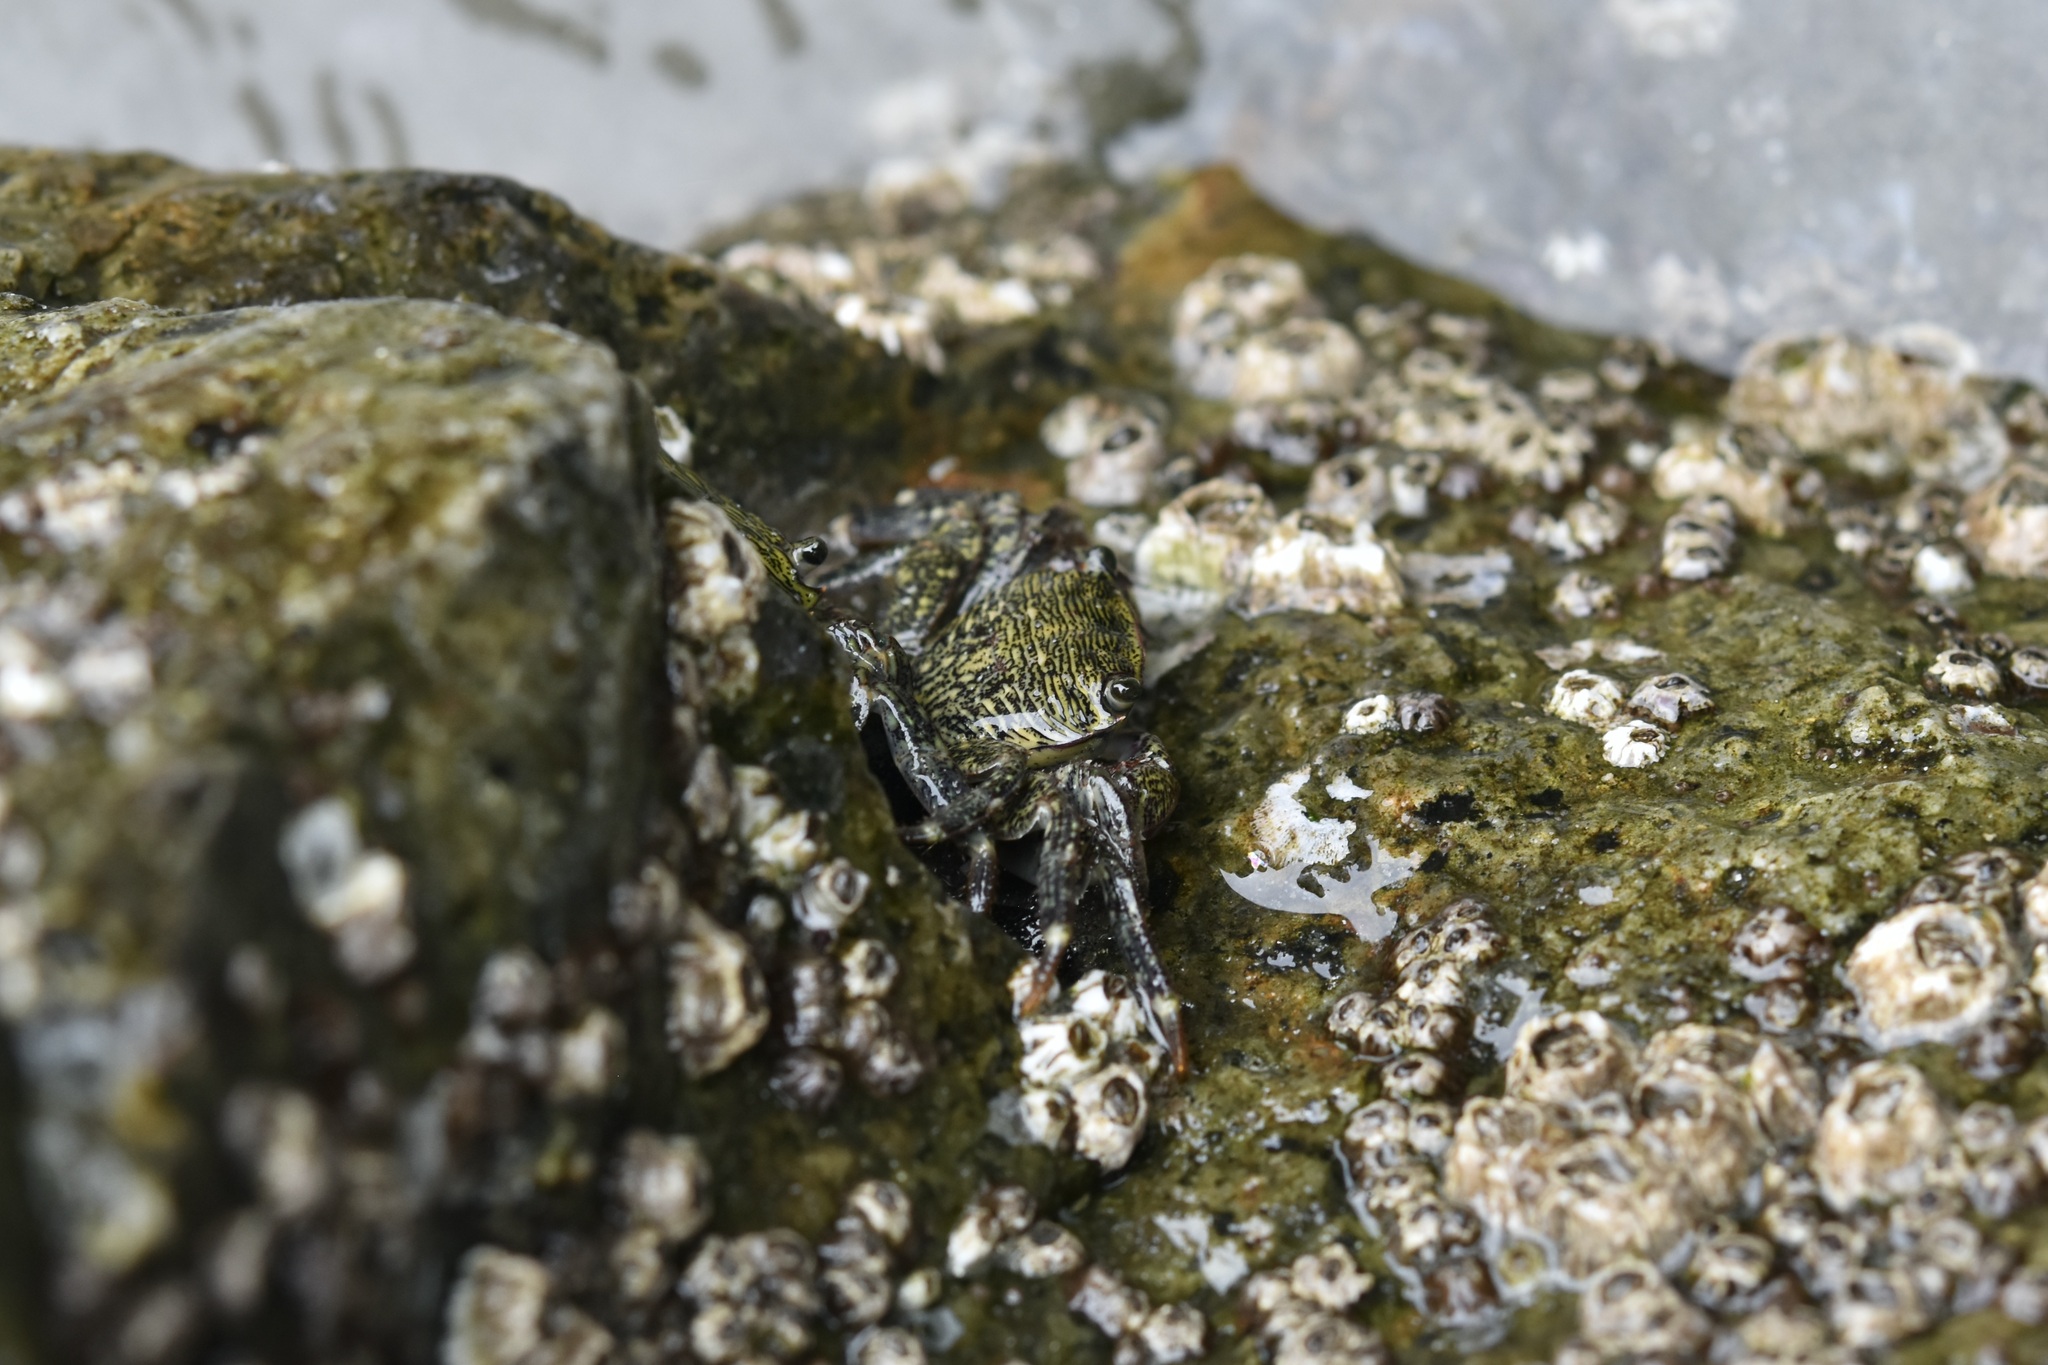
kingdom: Animalia
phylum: Arthropoda
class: Malacostraca
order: Decapoda
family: Grapsidae
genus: Pachygrapsus
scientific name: Pachygrapsus crassipes
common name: Striped shore crab
